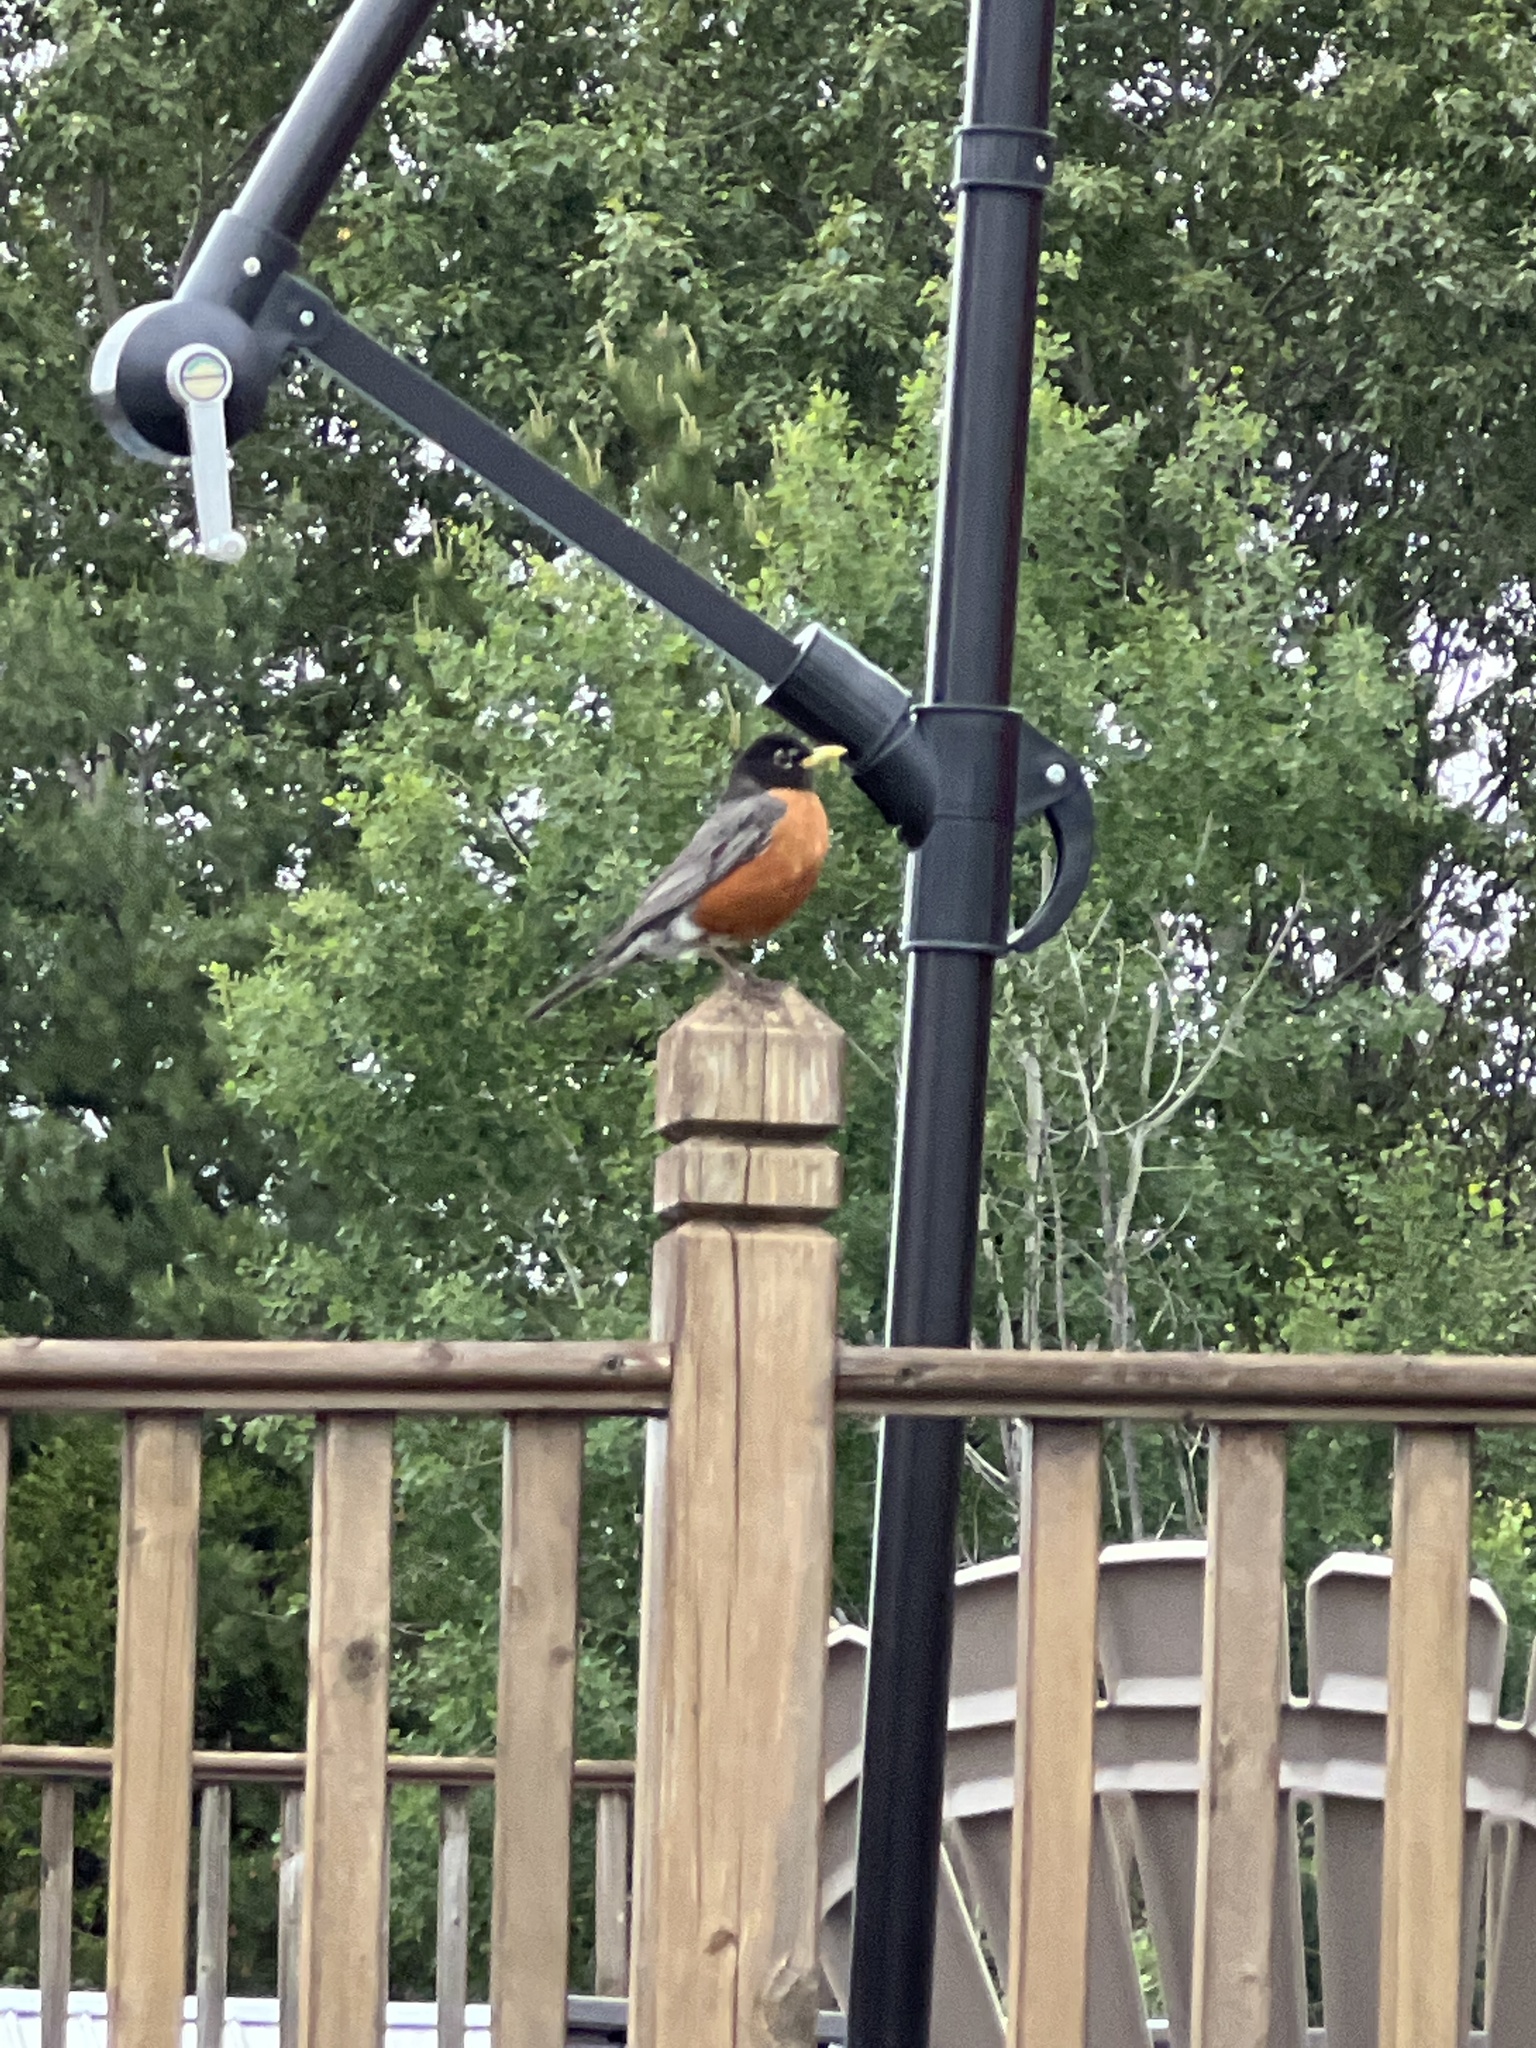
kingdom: Animalia
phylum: Chordata
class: Aves
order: Passeriformes
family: Turdidae
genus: Turdus
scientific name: Turdus migratorius
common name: American robin
